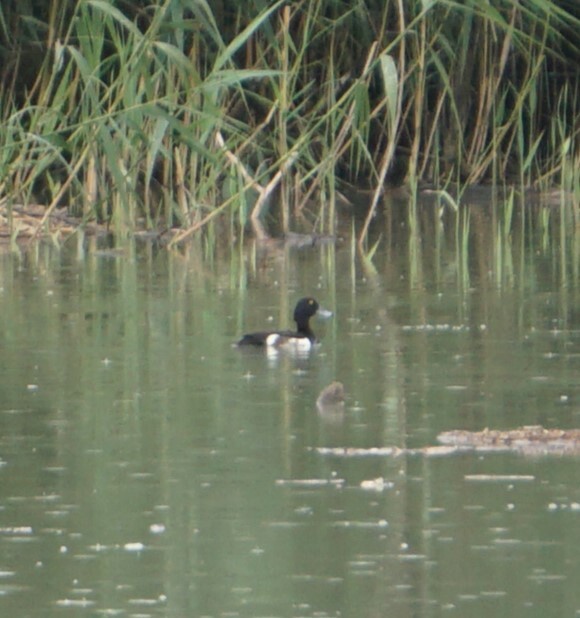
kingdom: Animalia
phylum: Chordata
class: Aves
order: Anseriformes
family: Anatidae
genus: Aythya
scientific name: Aythya fuligula
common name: Tufted duck
